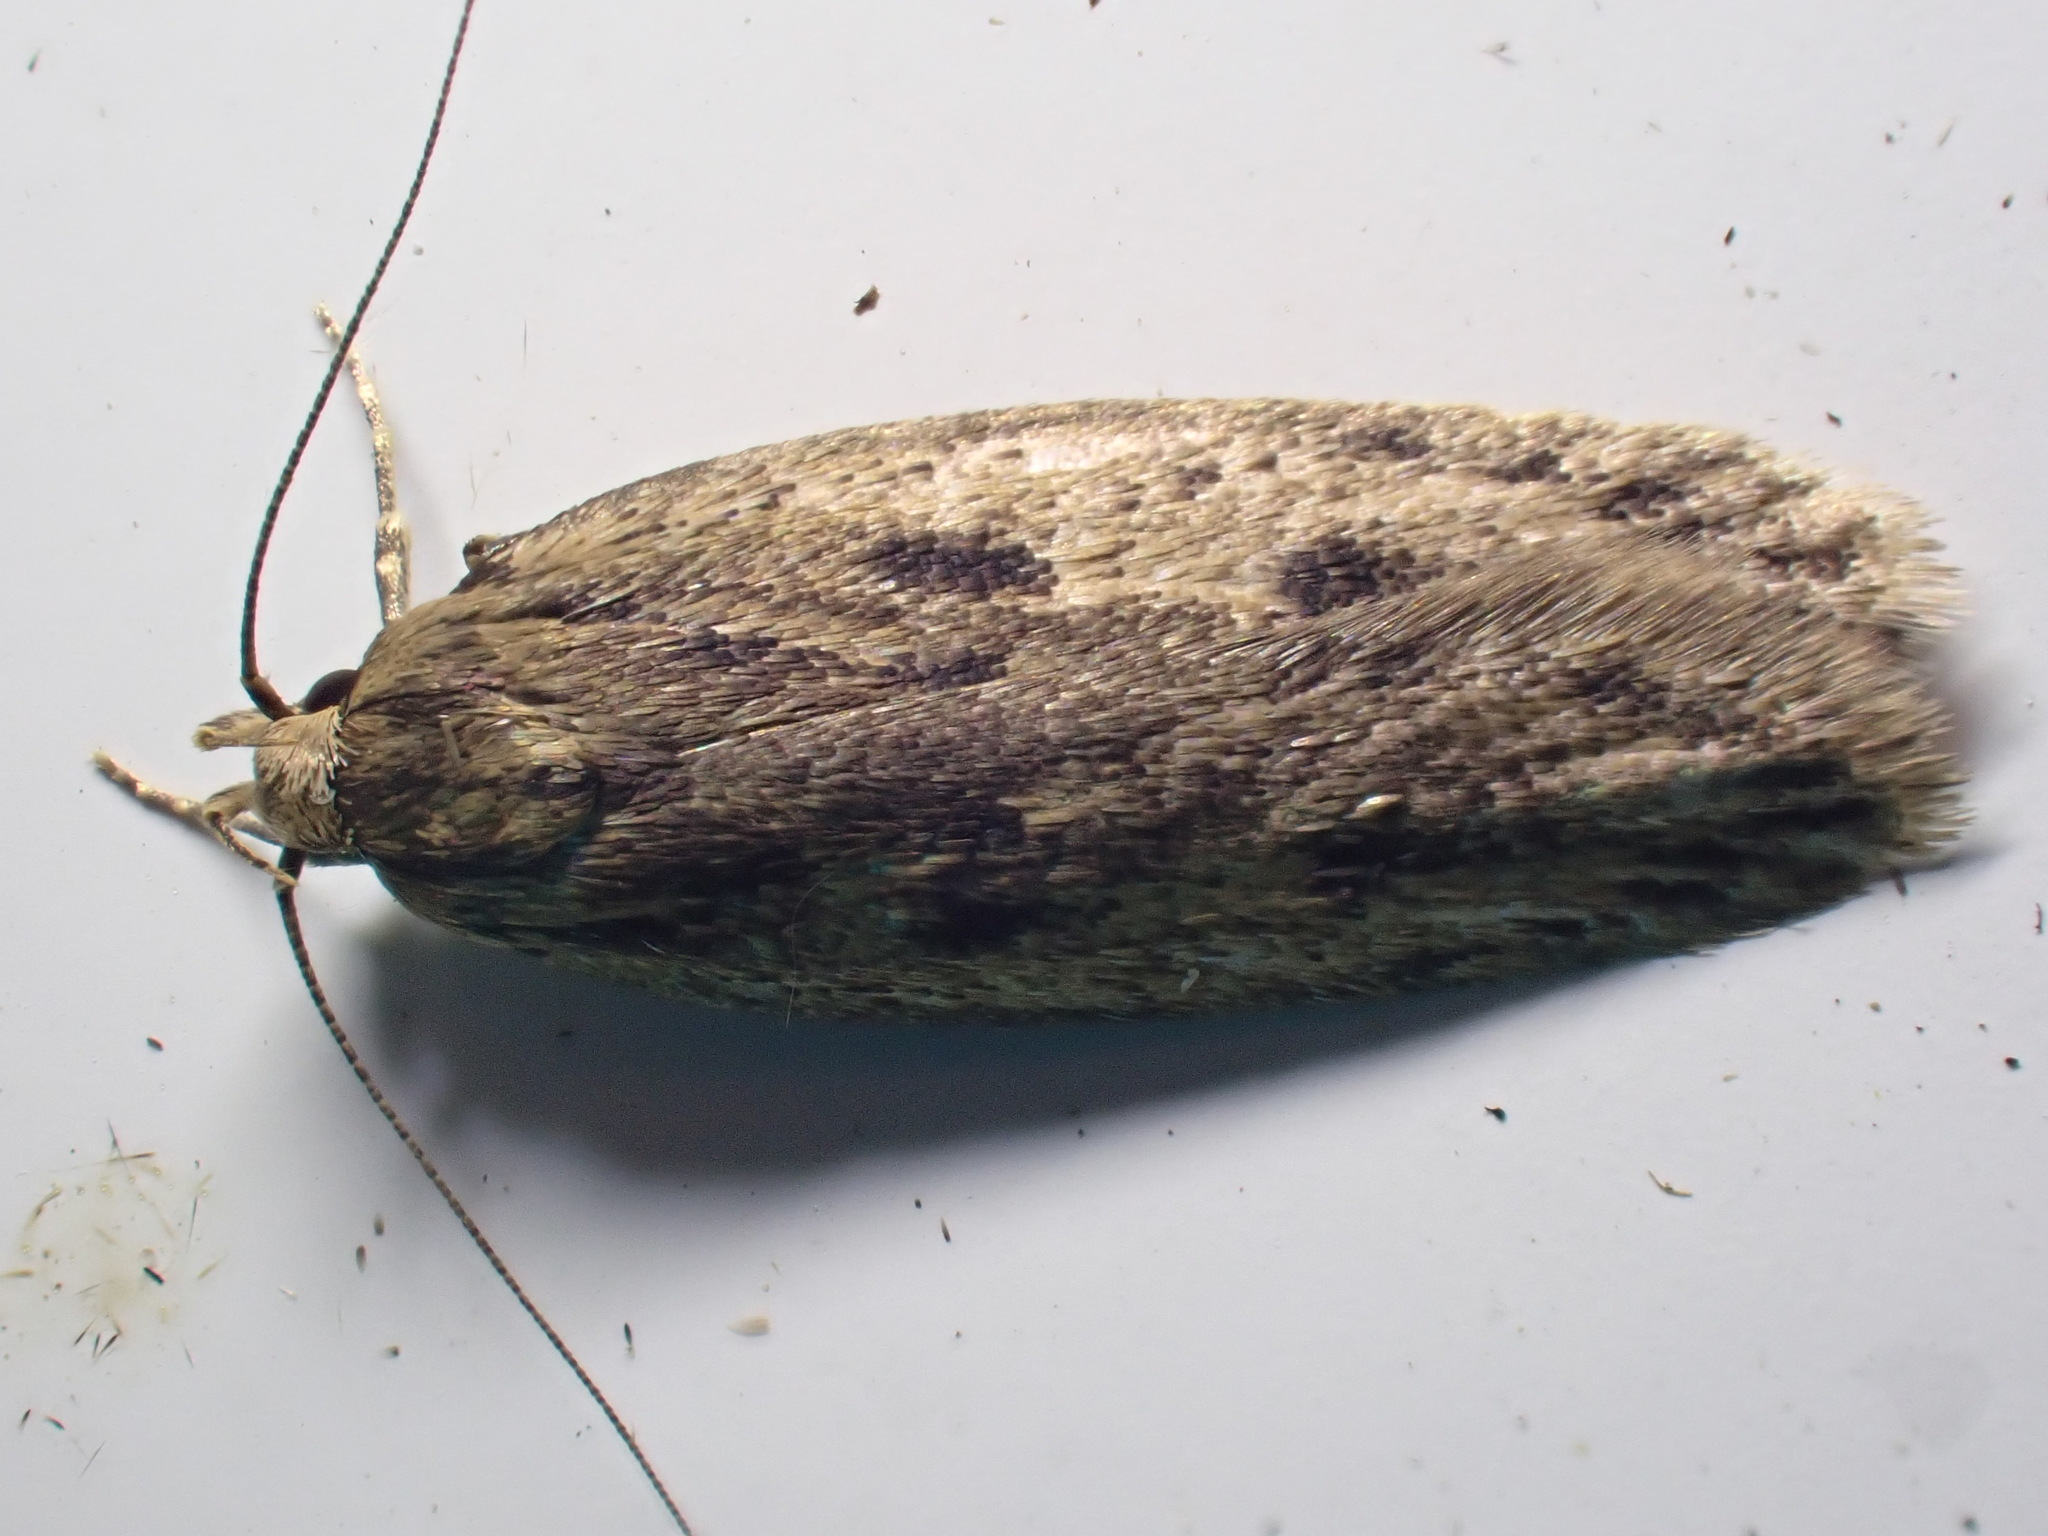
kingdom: Animalia
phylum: Arthropoda
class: Insecta
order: Lepidoptera
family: Oecophoridae
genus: Hofmannophila
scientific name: Hofmannophila pseudospretella
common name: Brown house moth
